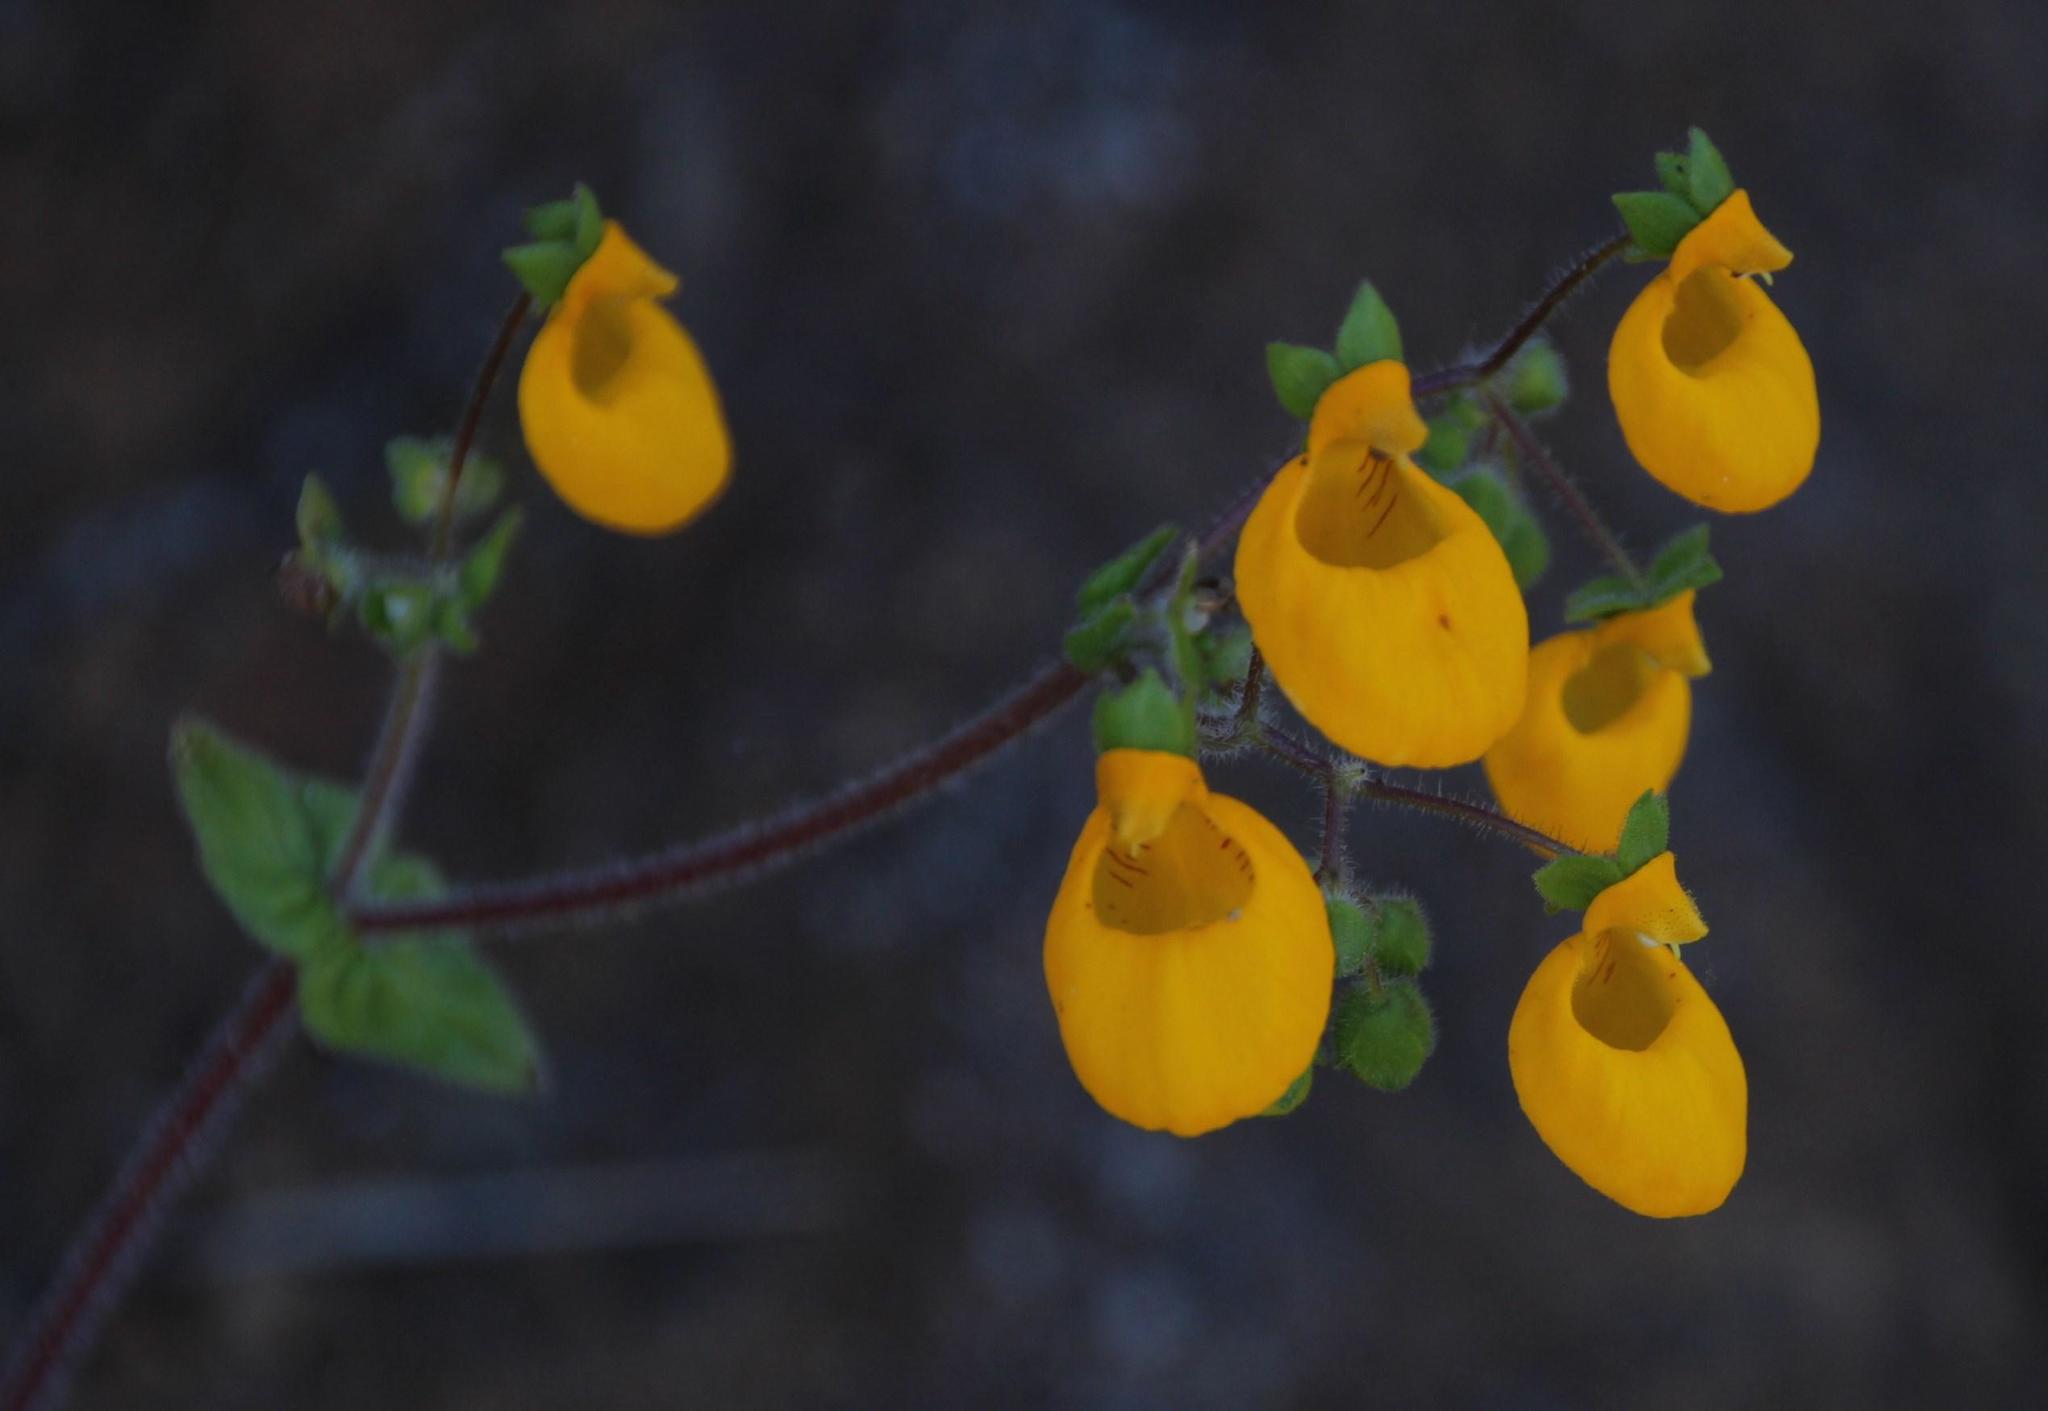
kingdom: Plantae
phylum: Tracheophyta
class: Magnoliopsida
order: Lamiales
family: Calceolariaceae
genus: Calceolaria
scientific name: Calceolaria corymbosa
